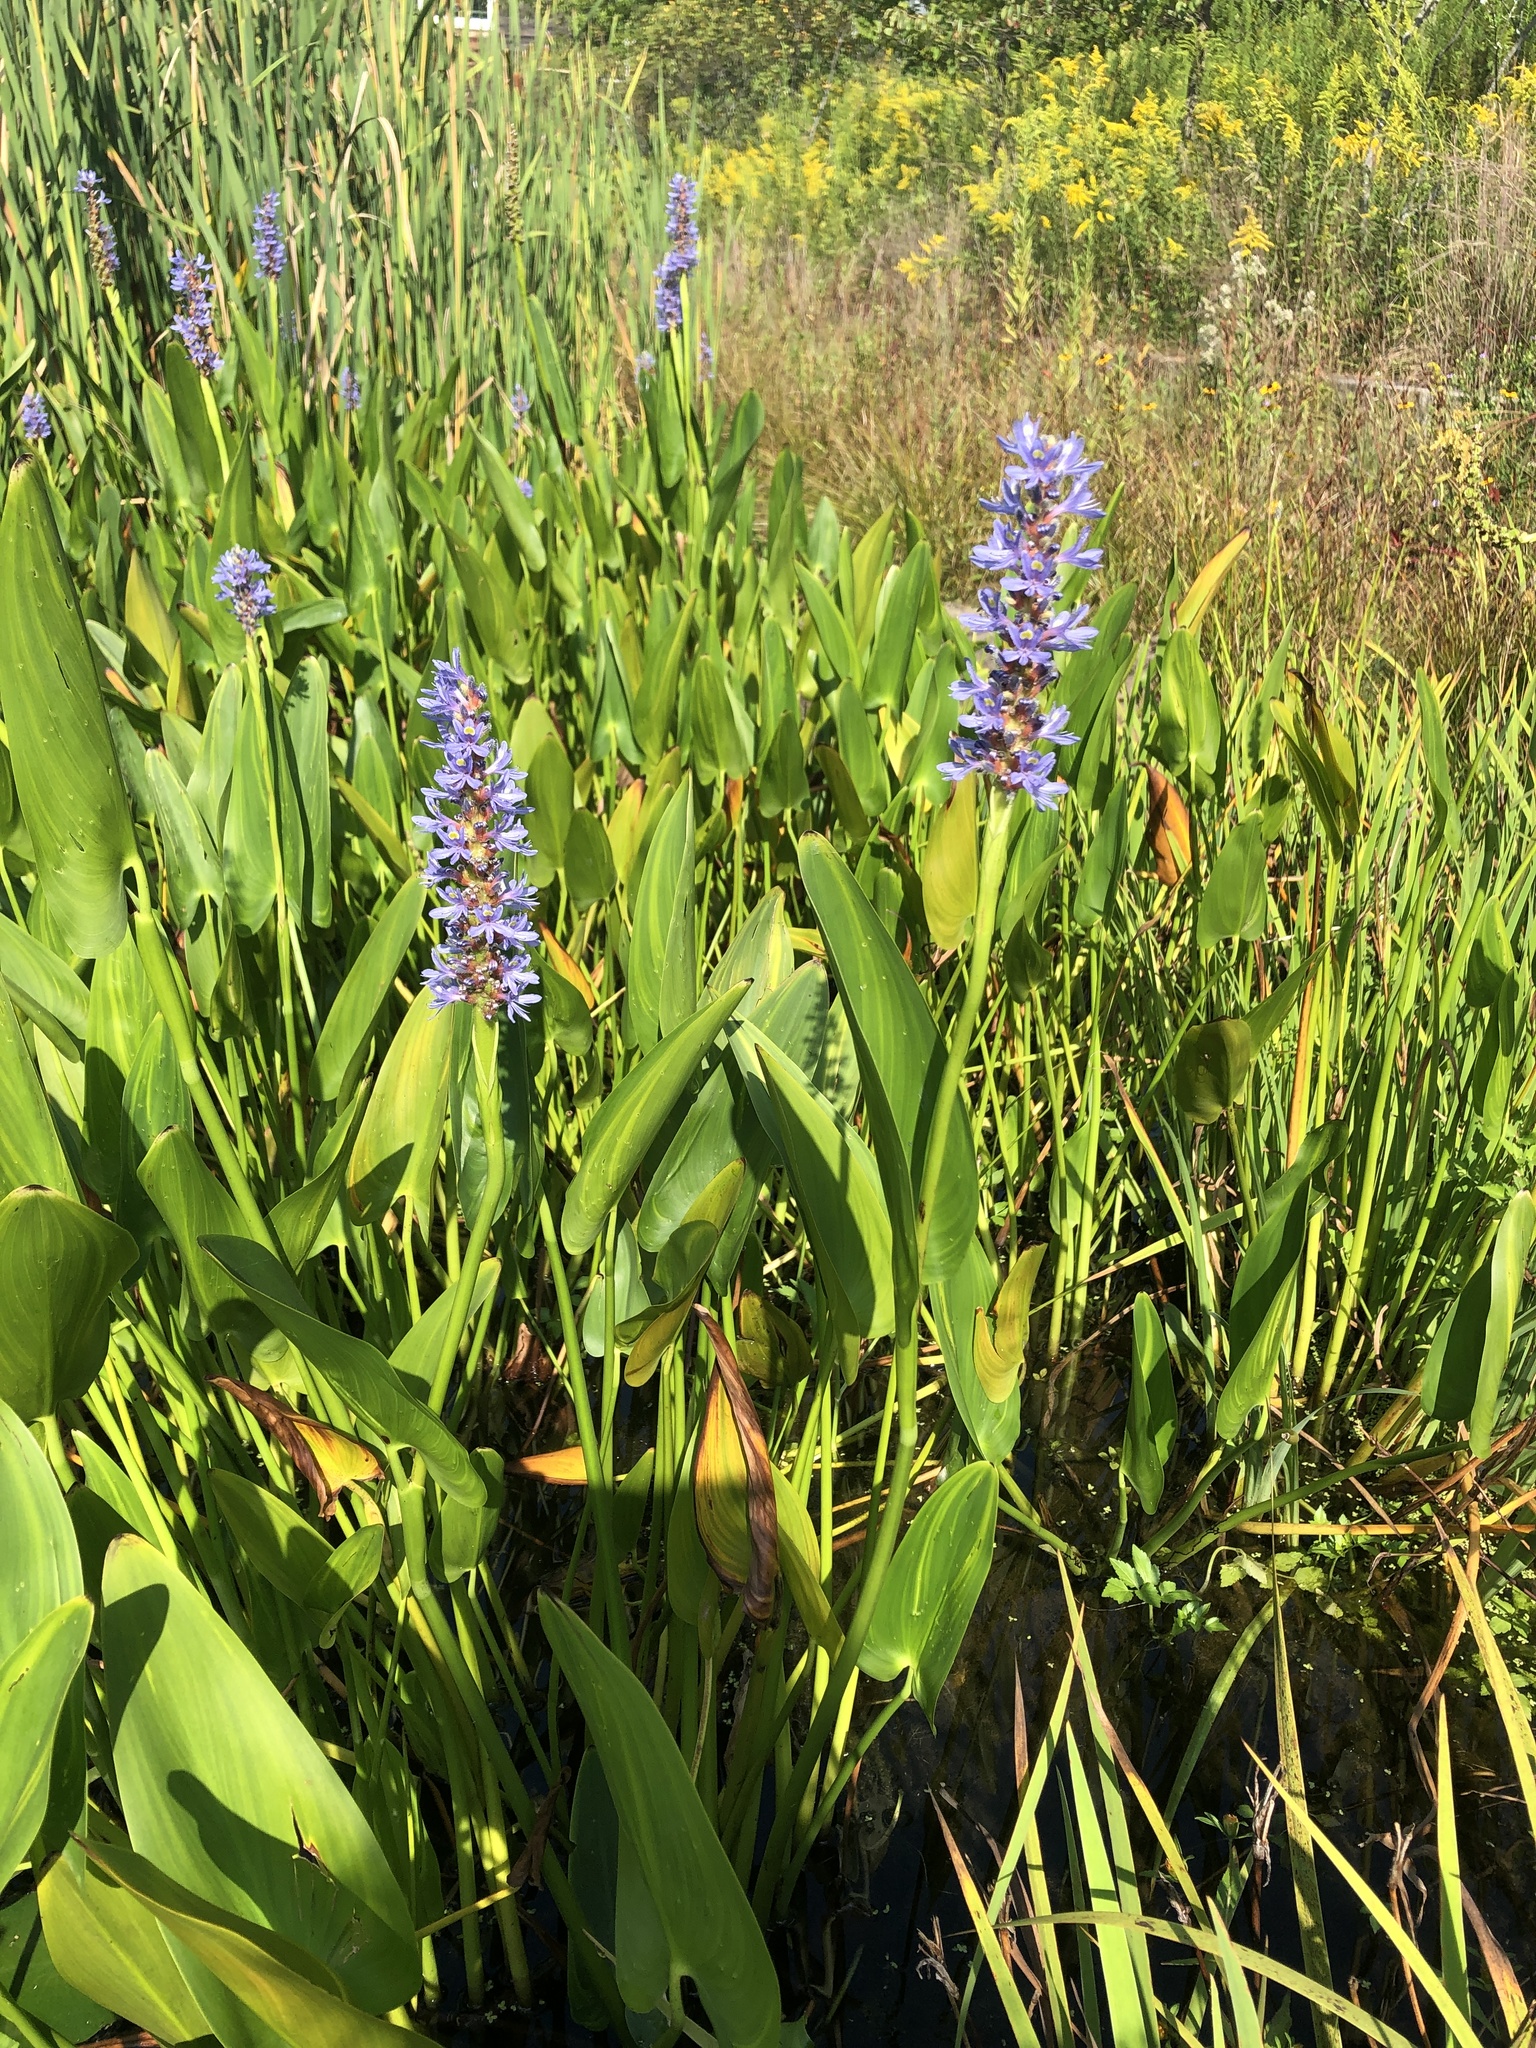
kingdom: Plantae
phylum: Tracheophyta
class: Liliopsida
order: Commelinales
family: Pontederiaceae
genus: Pontederia
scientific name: Pontederia cordata
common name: Pickerelweed
